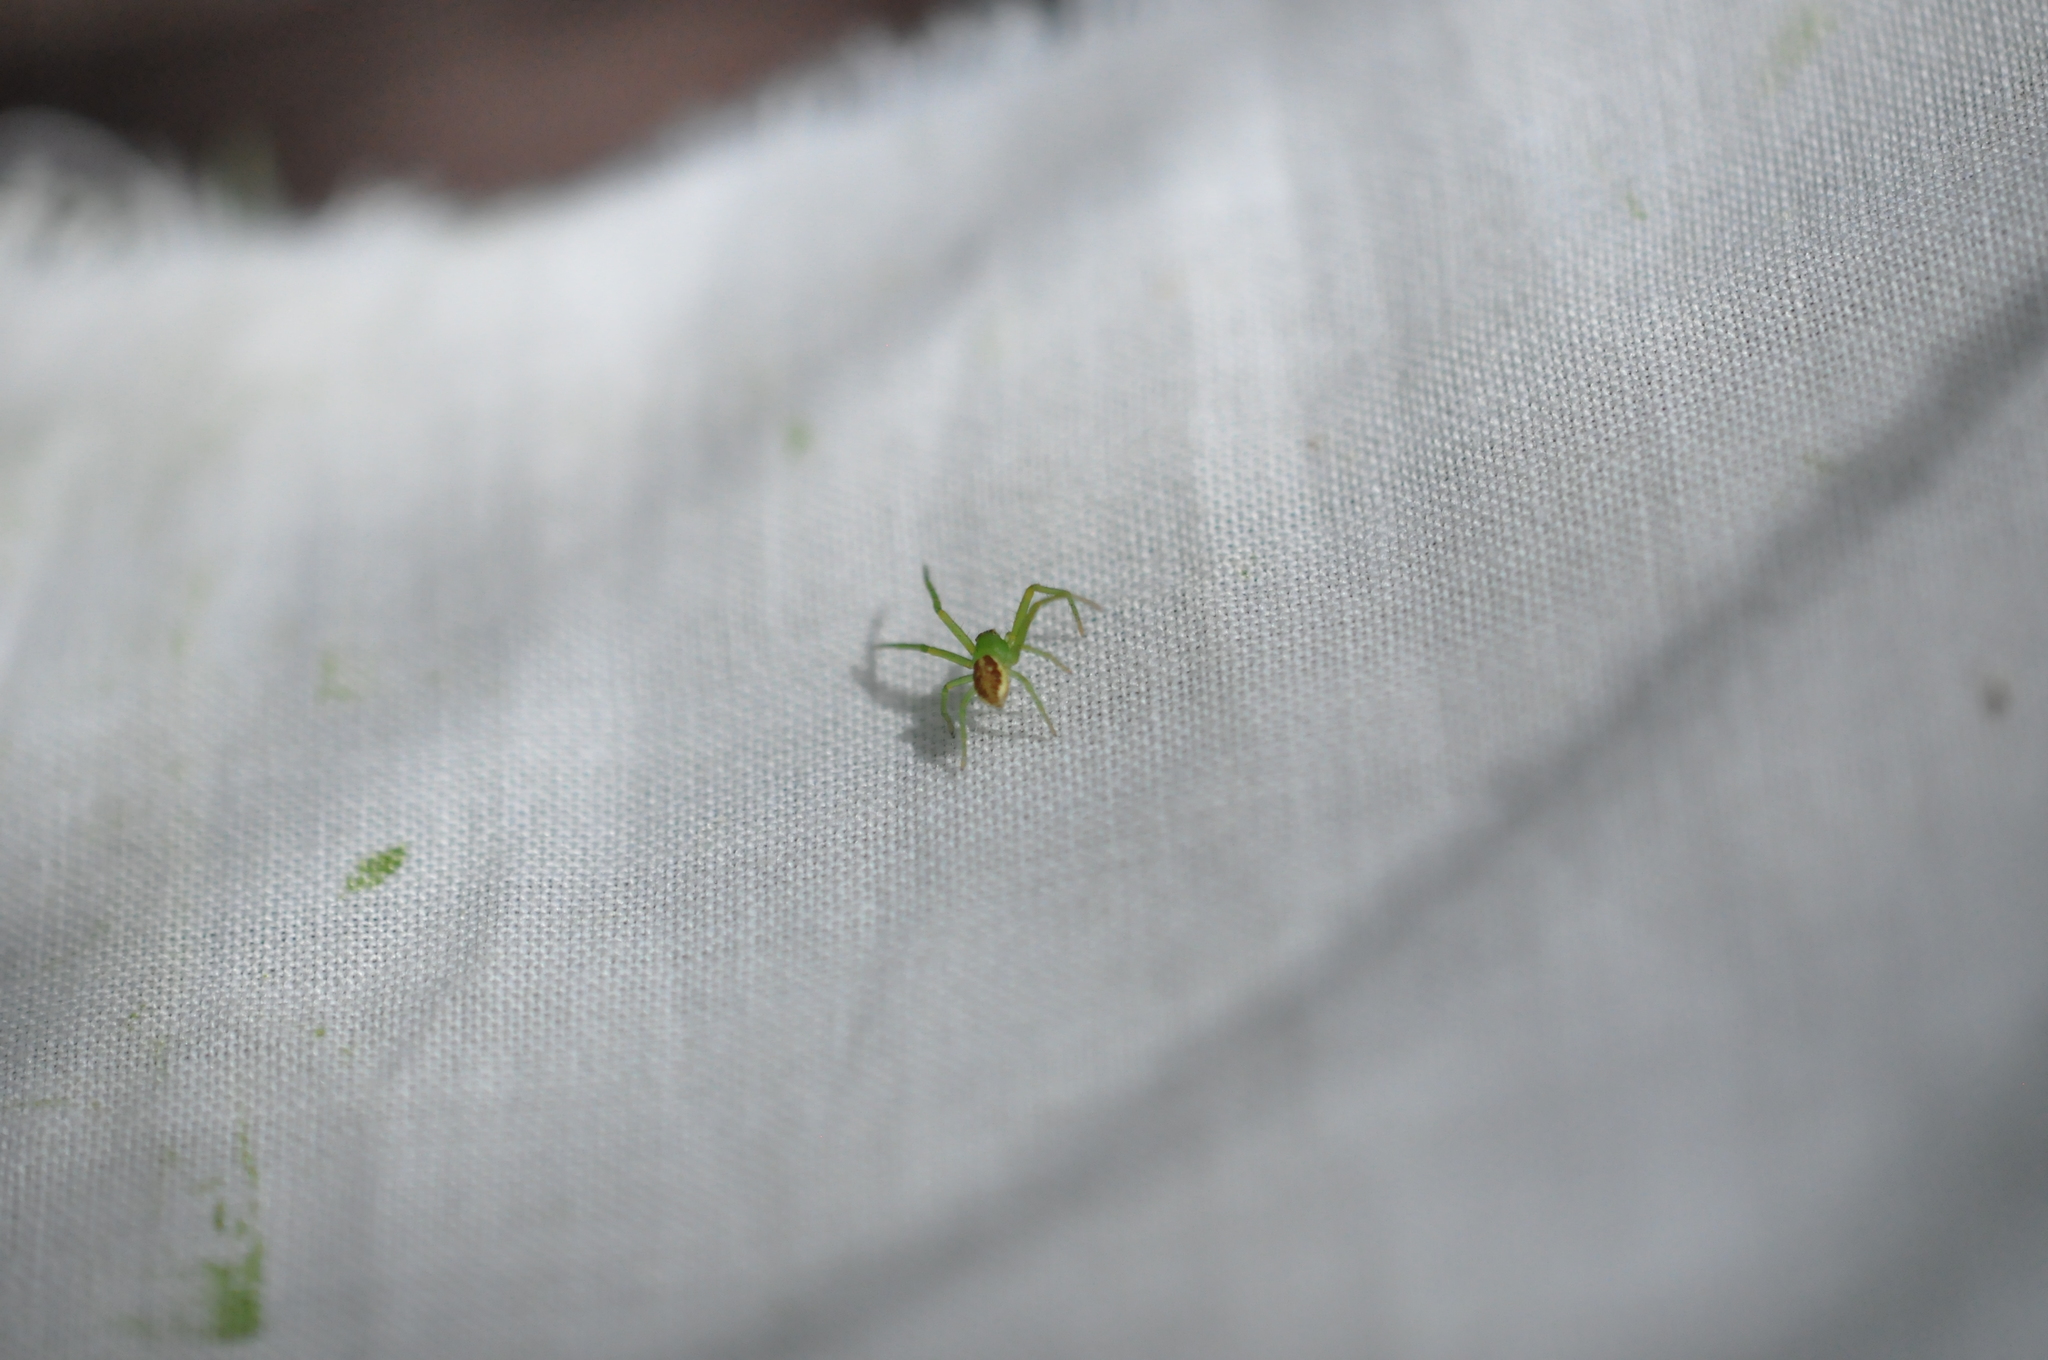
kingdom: Animalia
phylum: Arthropoda
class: Arachnida
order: Araneae
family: Thomisidae
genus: Diaea
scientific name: Diaea dorsata
